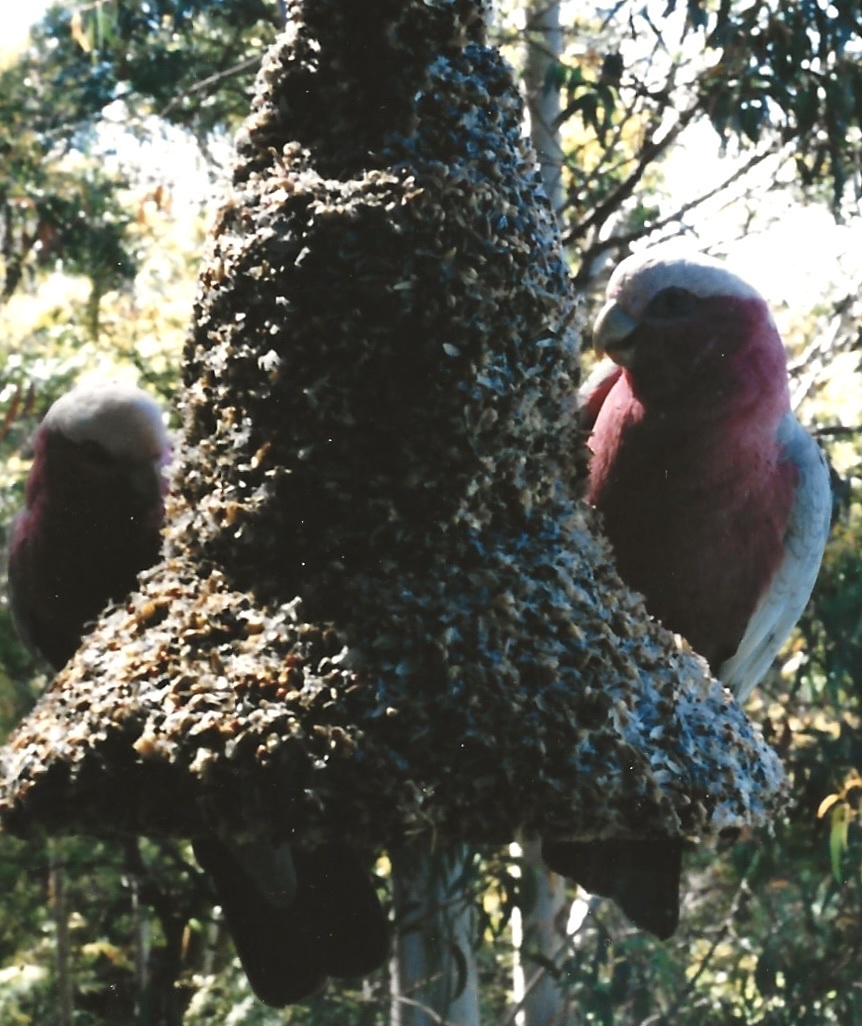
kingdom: Animalia
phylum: Chordata
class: Aves
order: Psittaciformes
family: Psittacidae
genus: Eolophus
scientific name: Eolophus roseicapilla
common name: Galah
